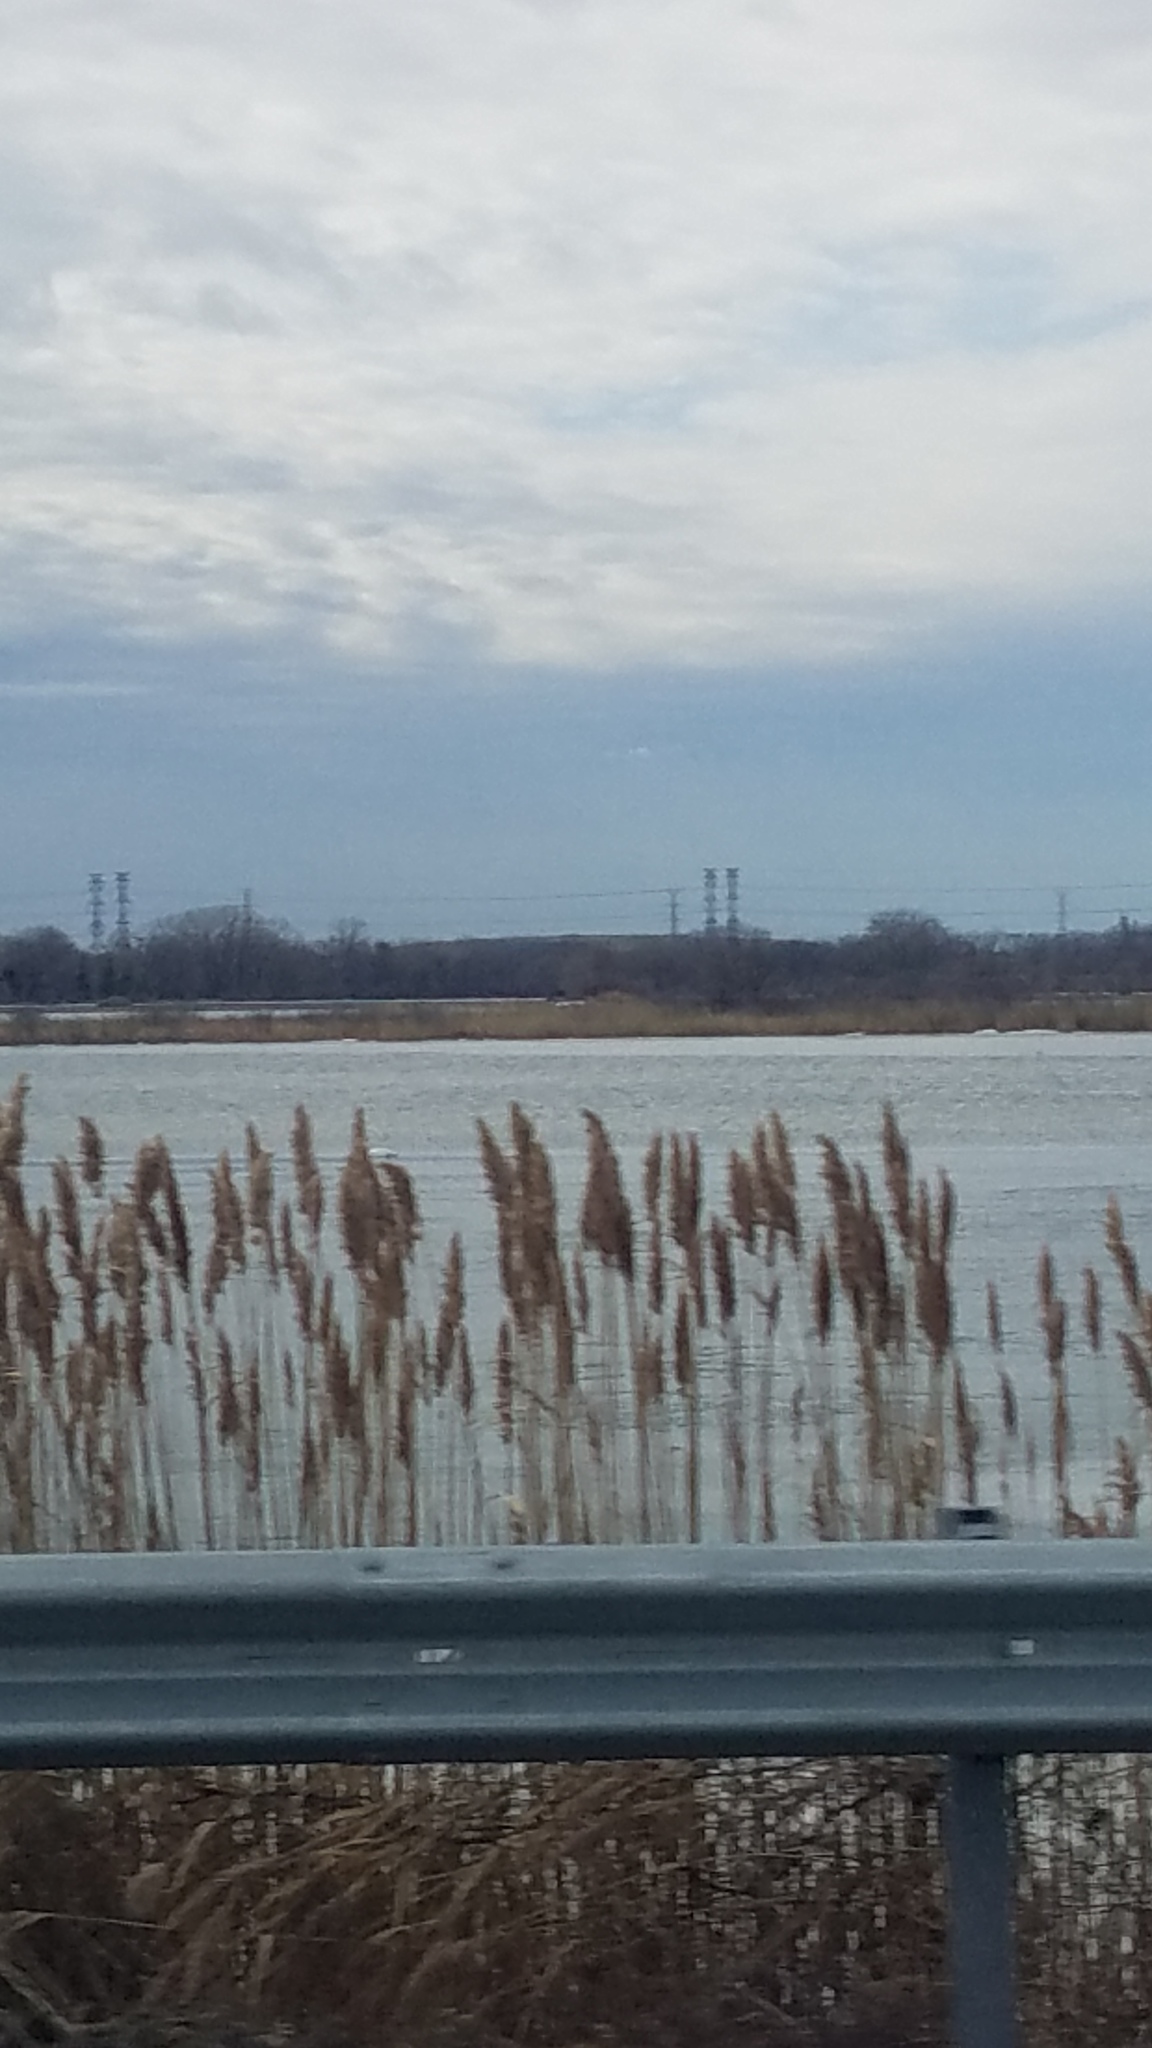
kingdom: Plantae
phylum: Tracheophyta
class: Liliopsida
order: Poales
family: Poaceae
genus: Phragmites
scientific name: Phragmites australis
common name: Common reed
